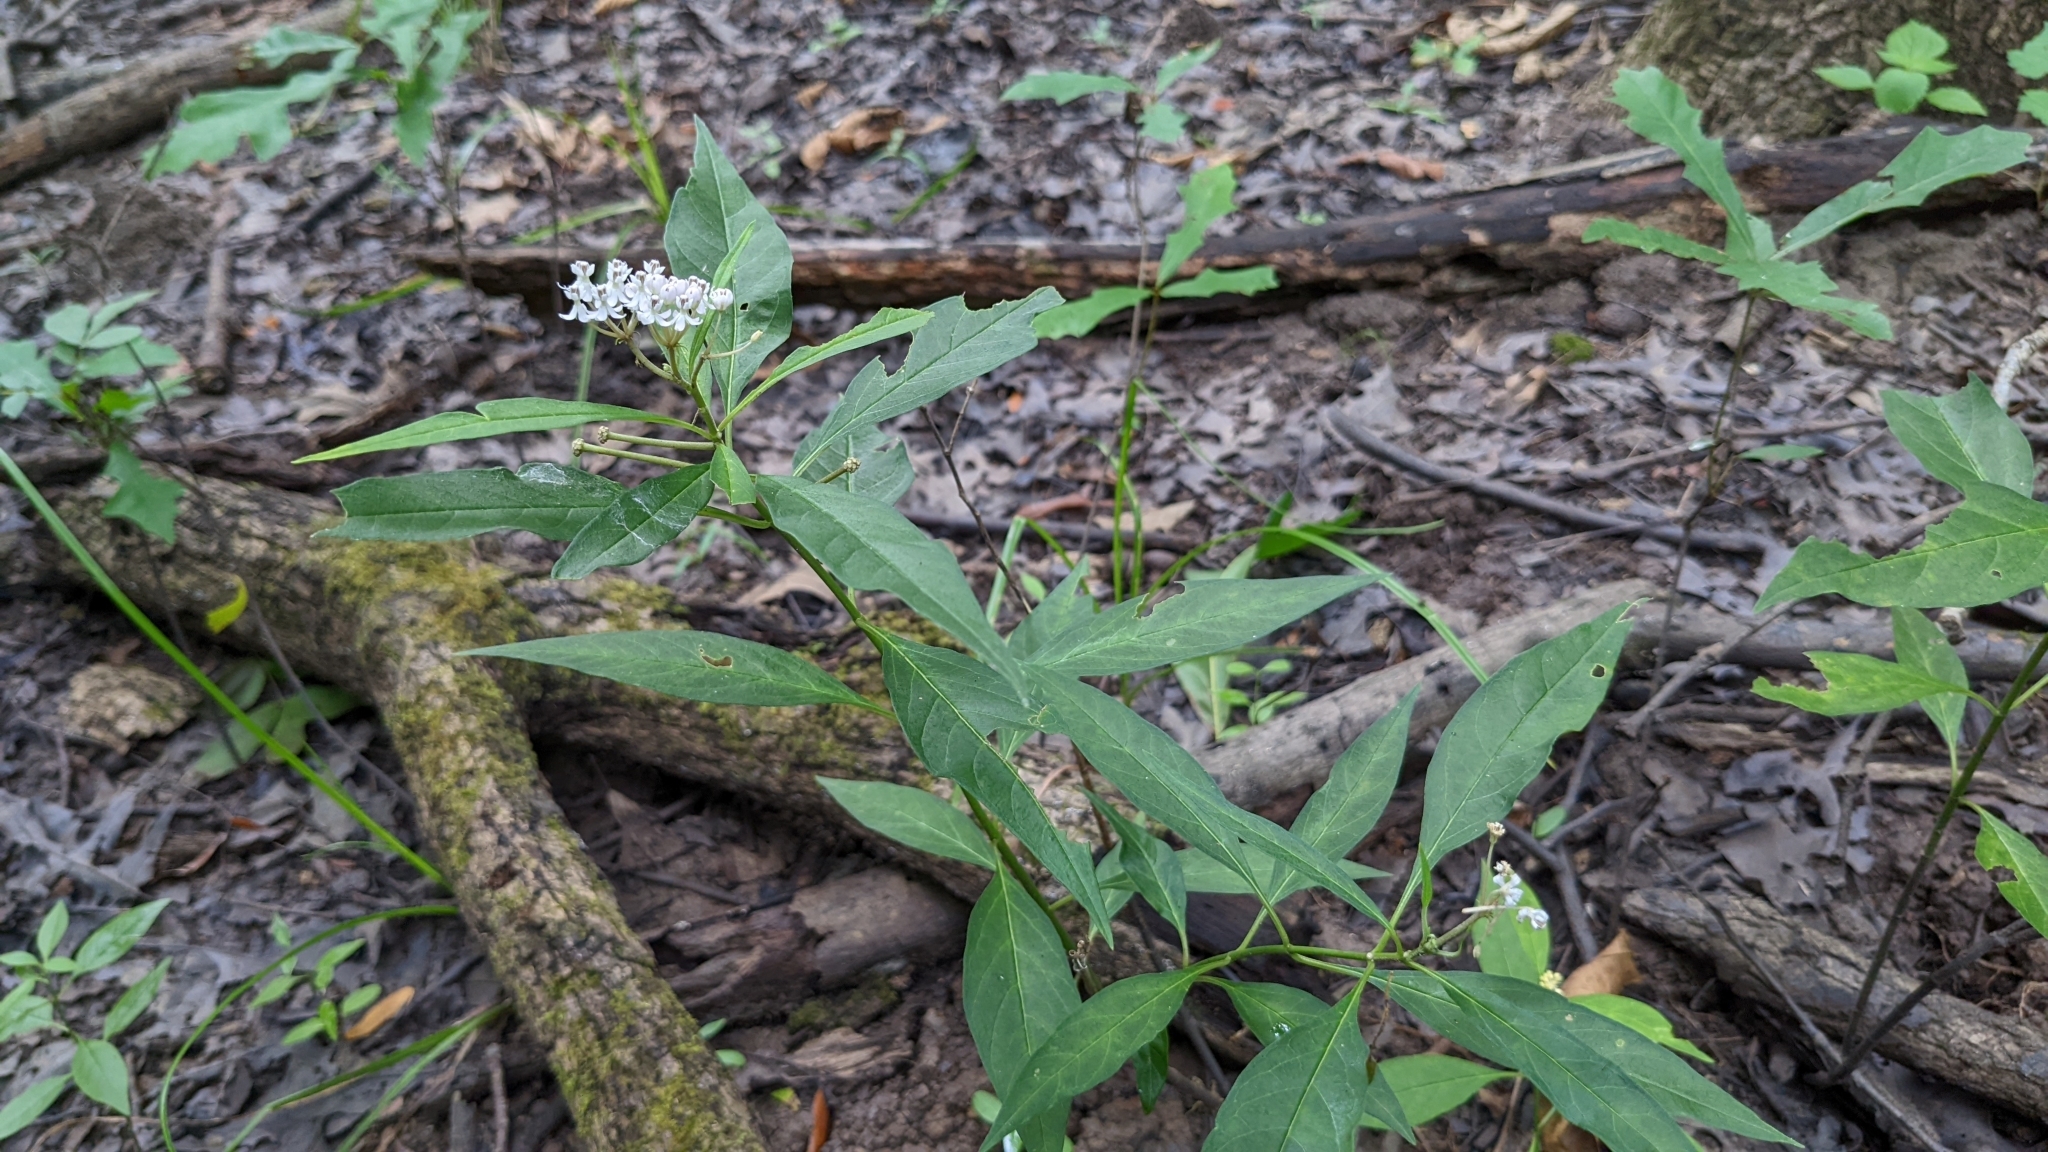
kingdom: Plantae
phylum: Tracheophyta
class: Magnoliopsida
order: Gentianales
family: Apocynaceae
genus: Asclepias
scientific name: Asclepias perennis
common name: Smooth-seed milkweed
